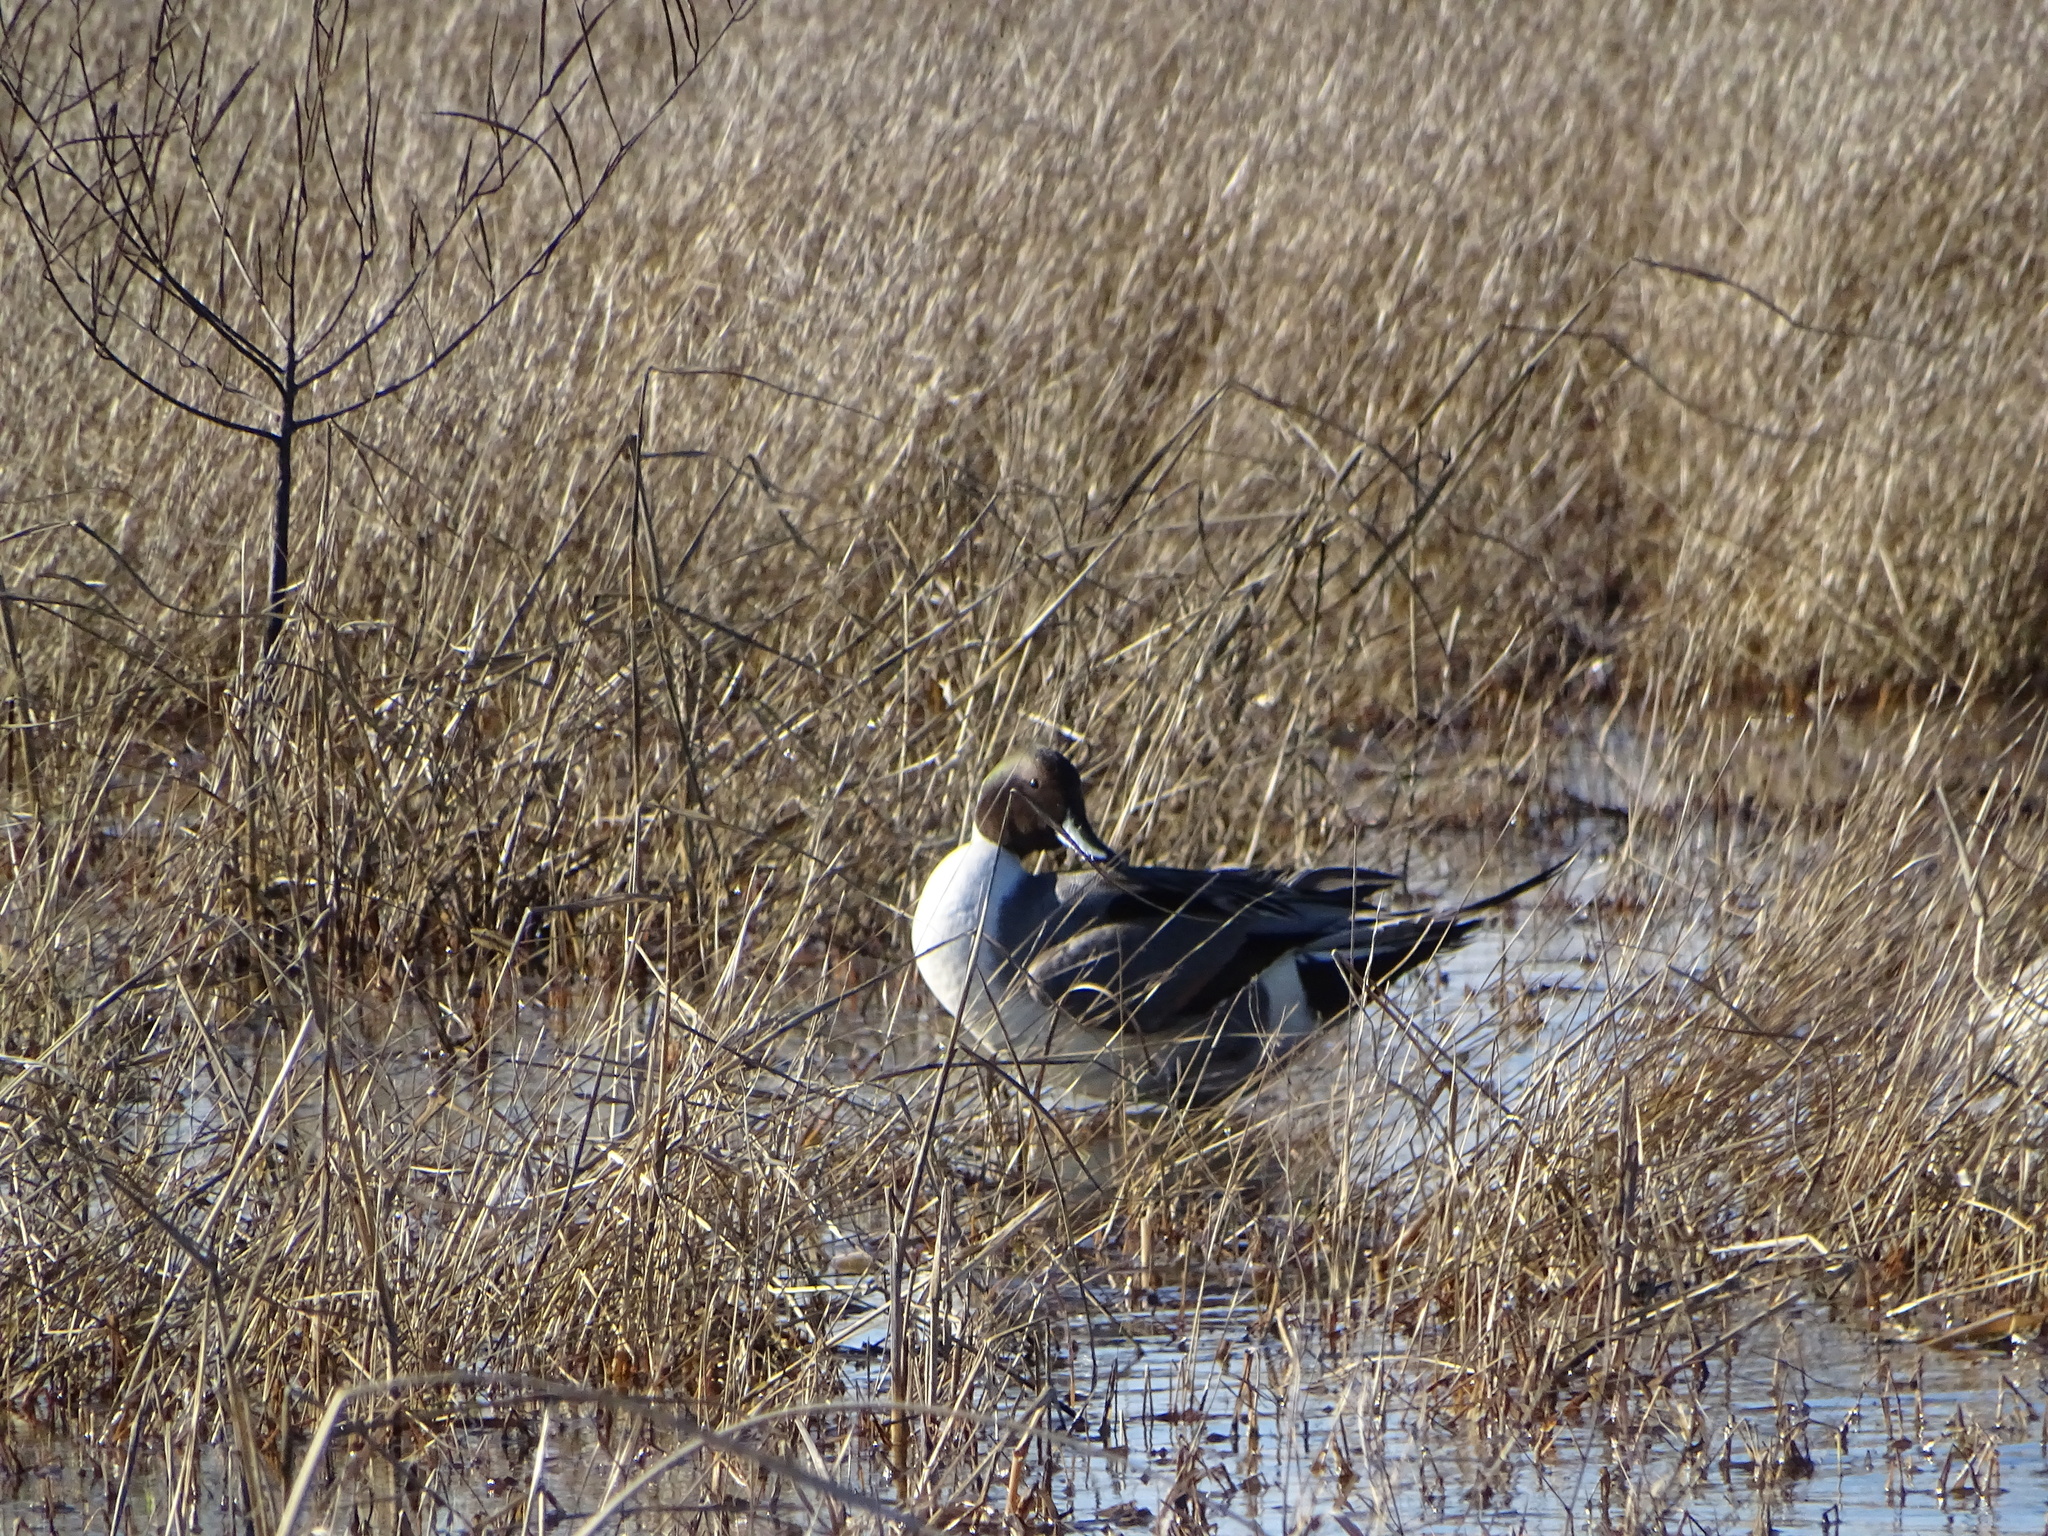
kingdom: Animalia
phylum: Chordata
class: Aves
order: Anseriformes
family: Anatidae
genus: Anas
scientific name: Anas acuta
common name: Northern pintail
